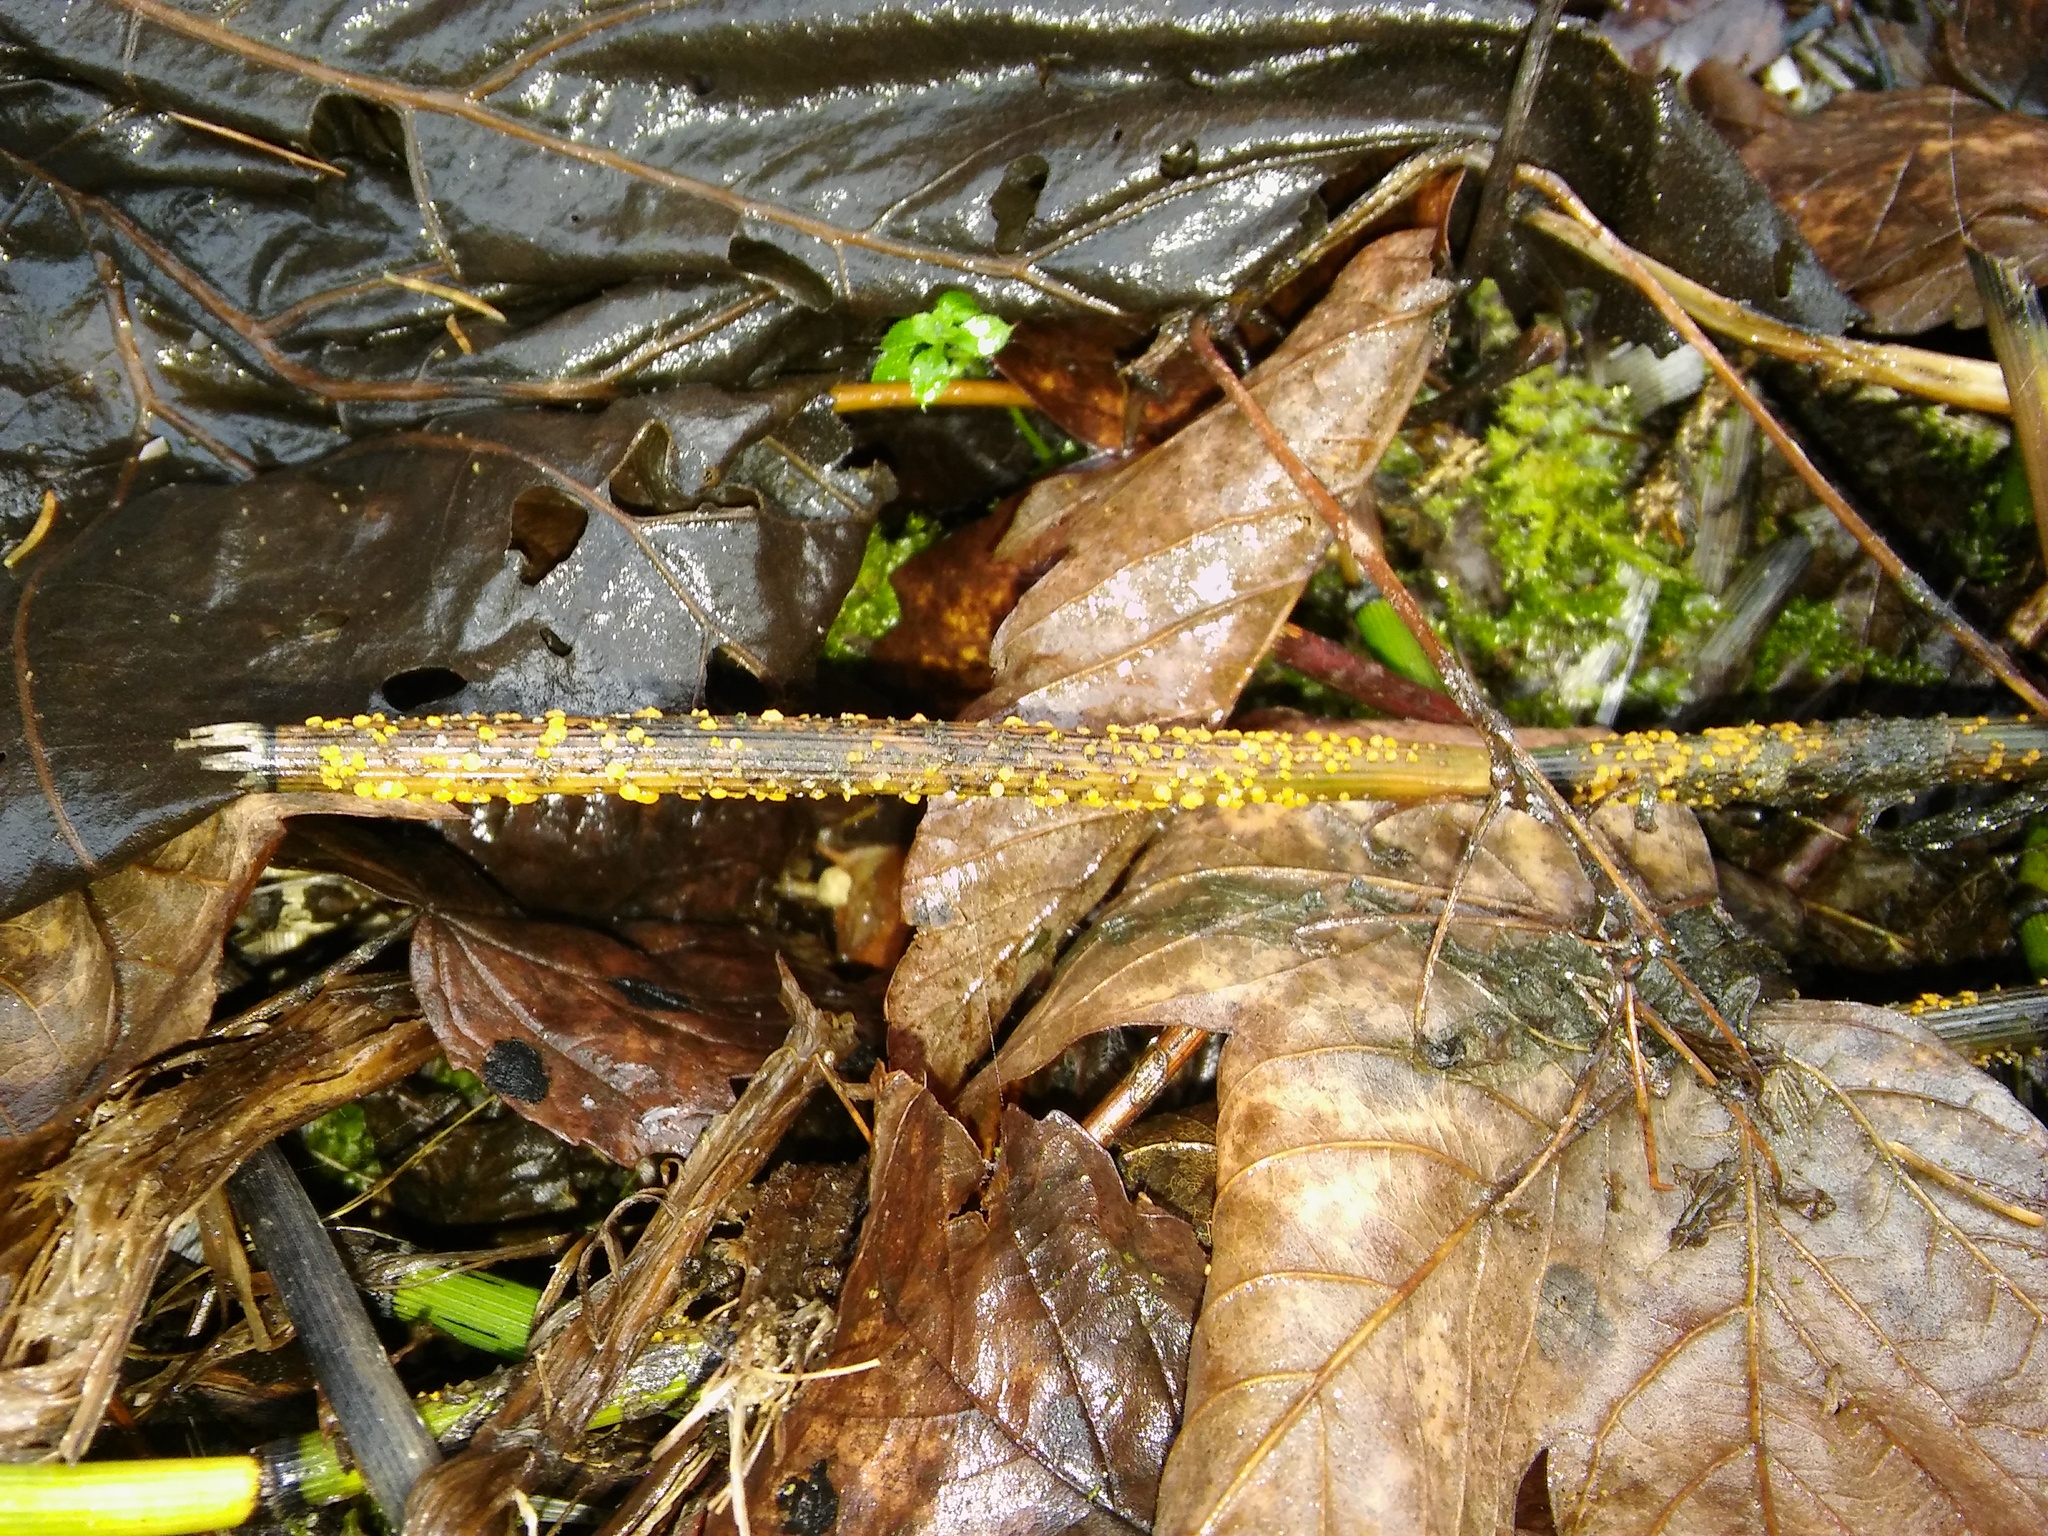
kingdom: Fungi
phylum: Ascomycota
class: Leotiomycetes
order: Helotiales
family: Helotiaceae
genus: Stamnaria
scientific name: Stamnaria americana
